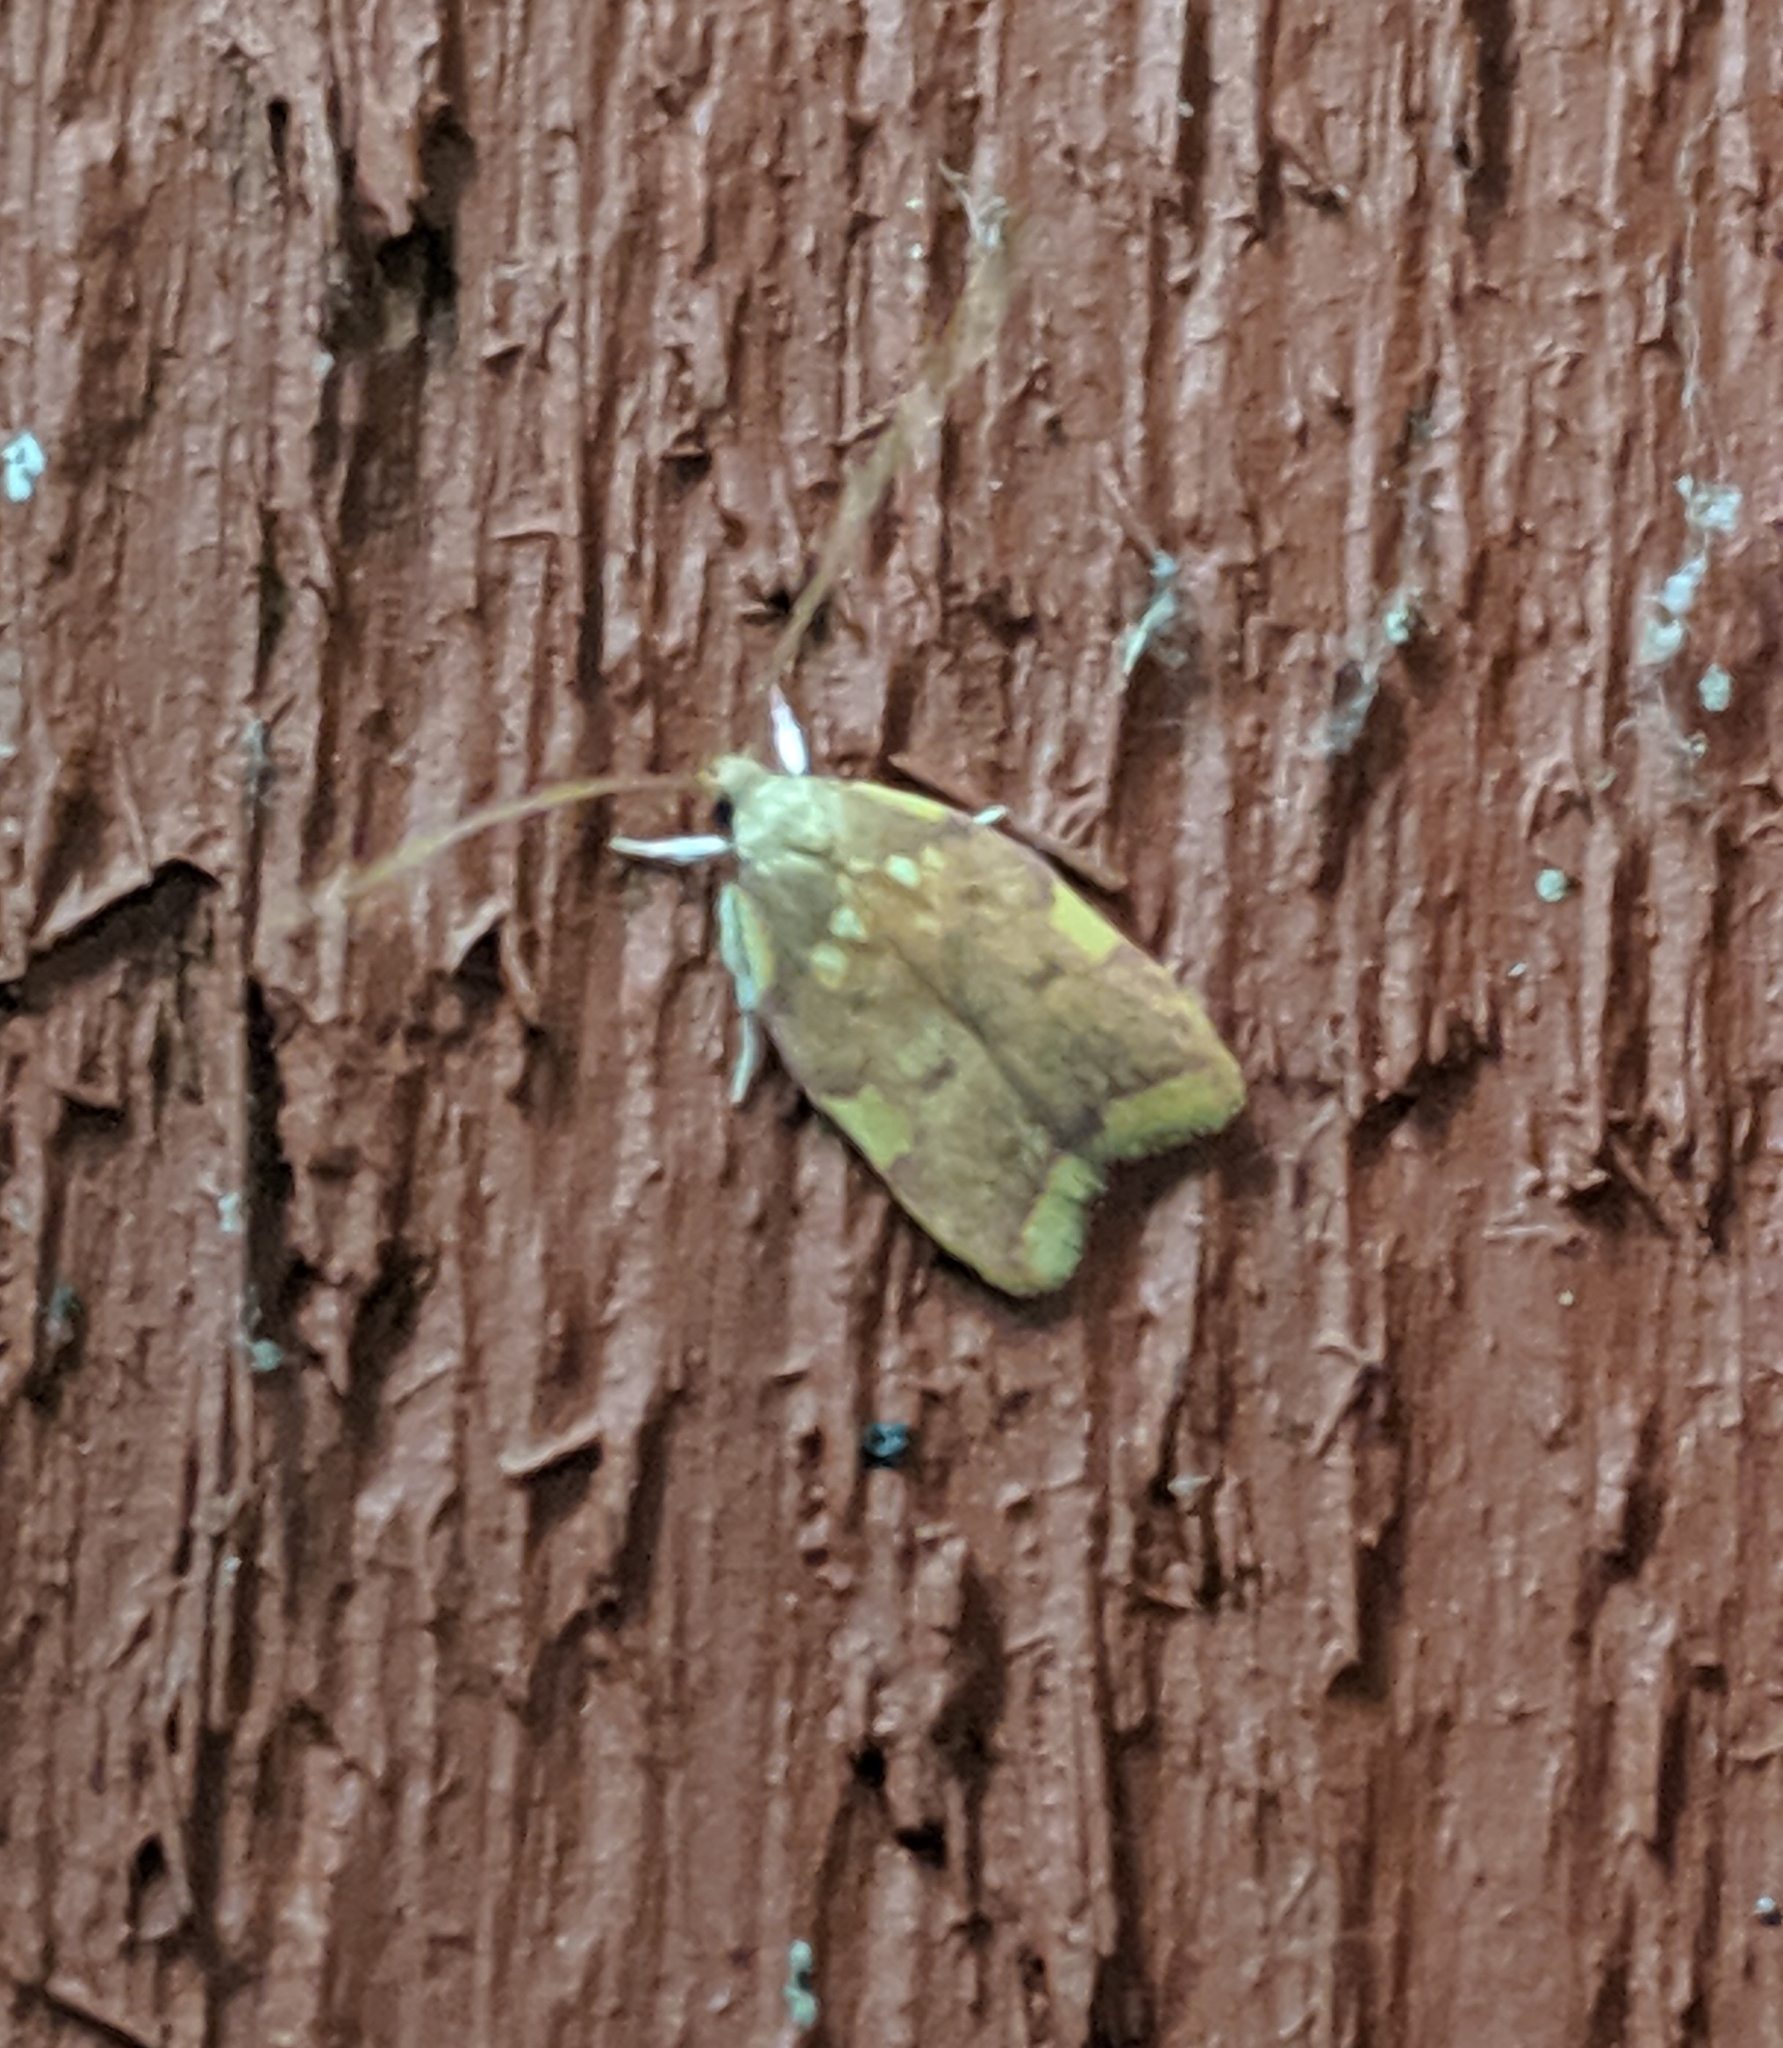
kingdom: Animalia
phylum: Arthropoda
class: Insecta
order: Lepidoptera
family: Peleopodidae
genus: Carcina
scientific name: Carcina quercana
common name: Moth
